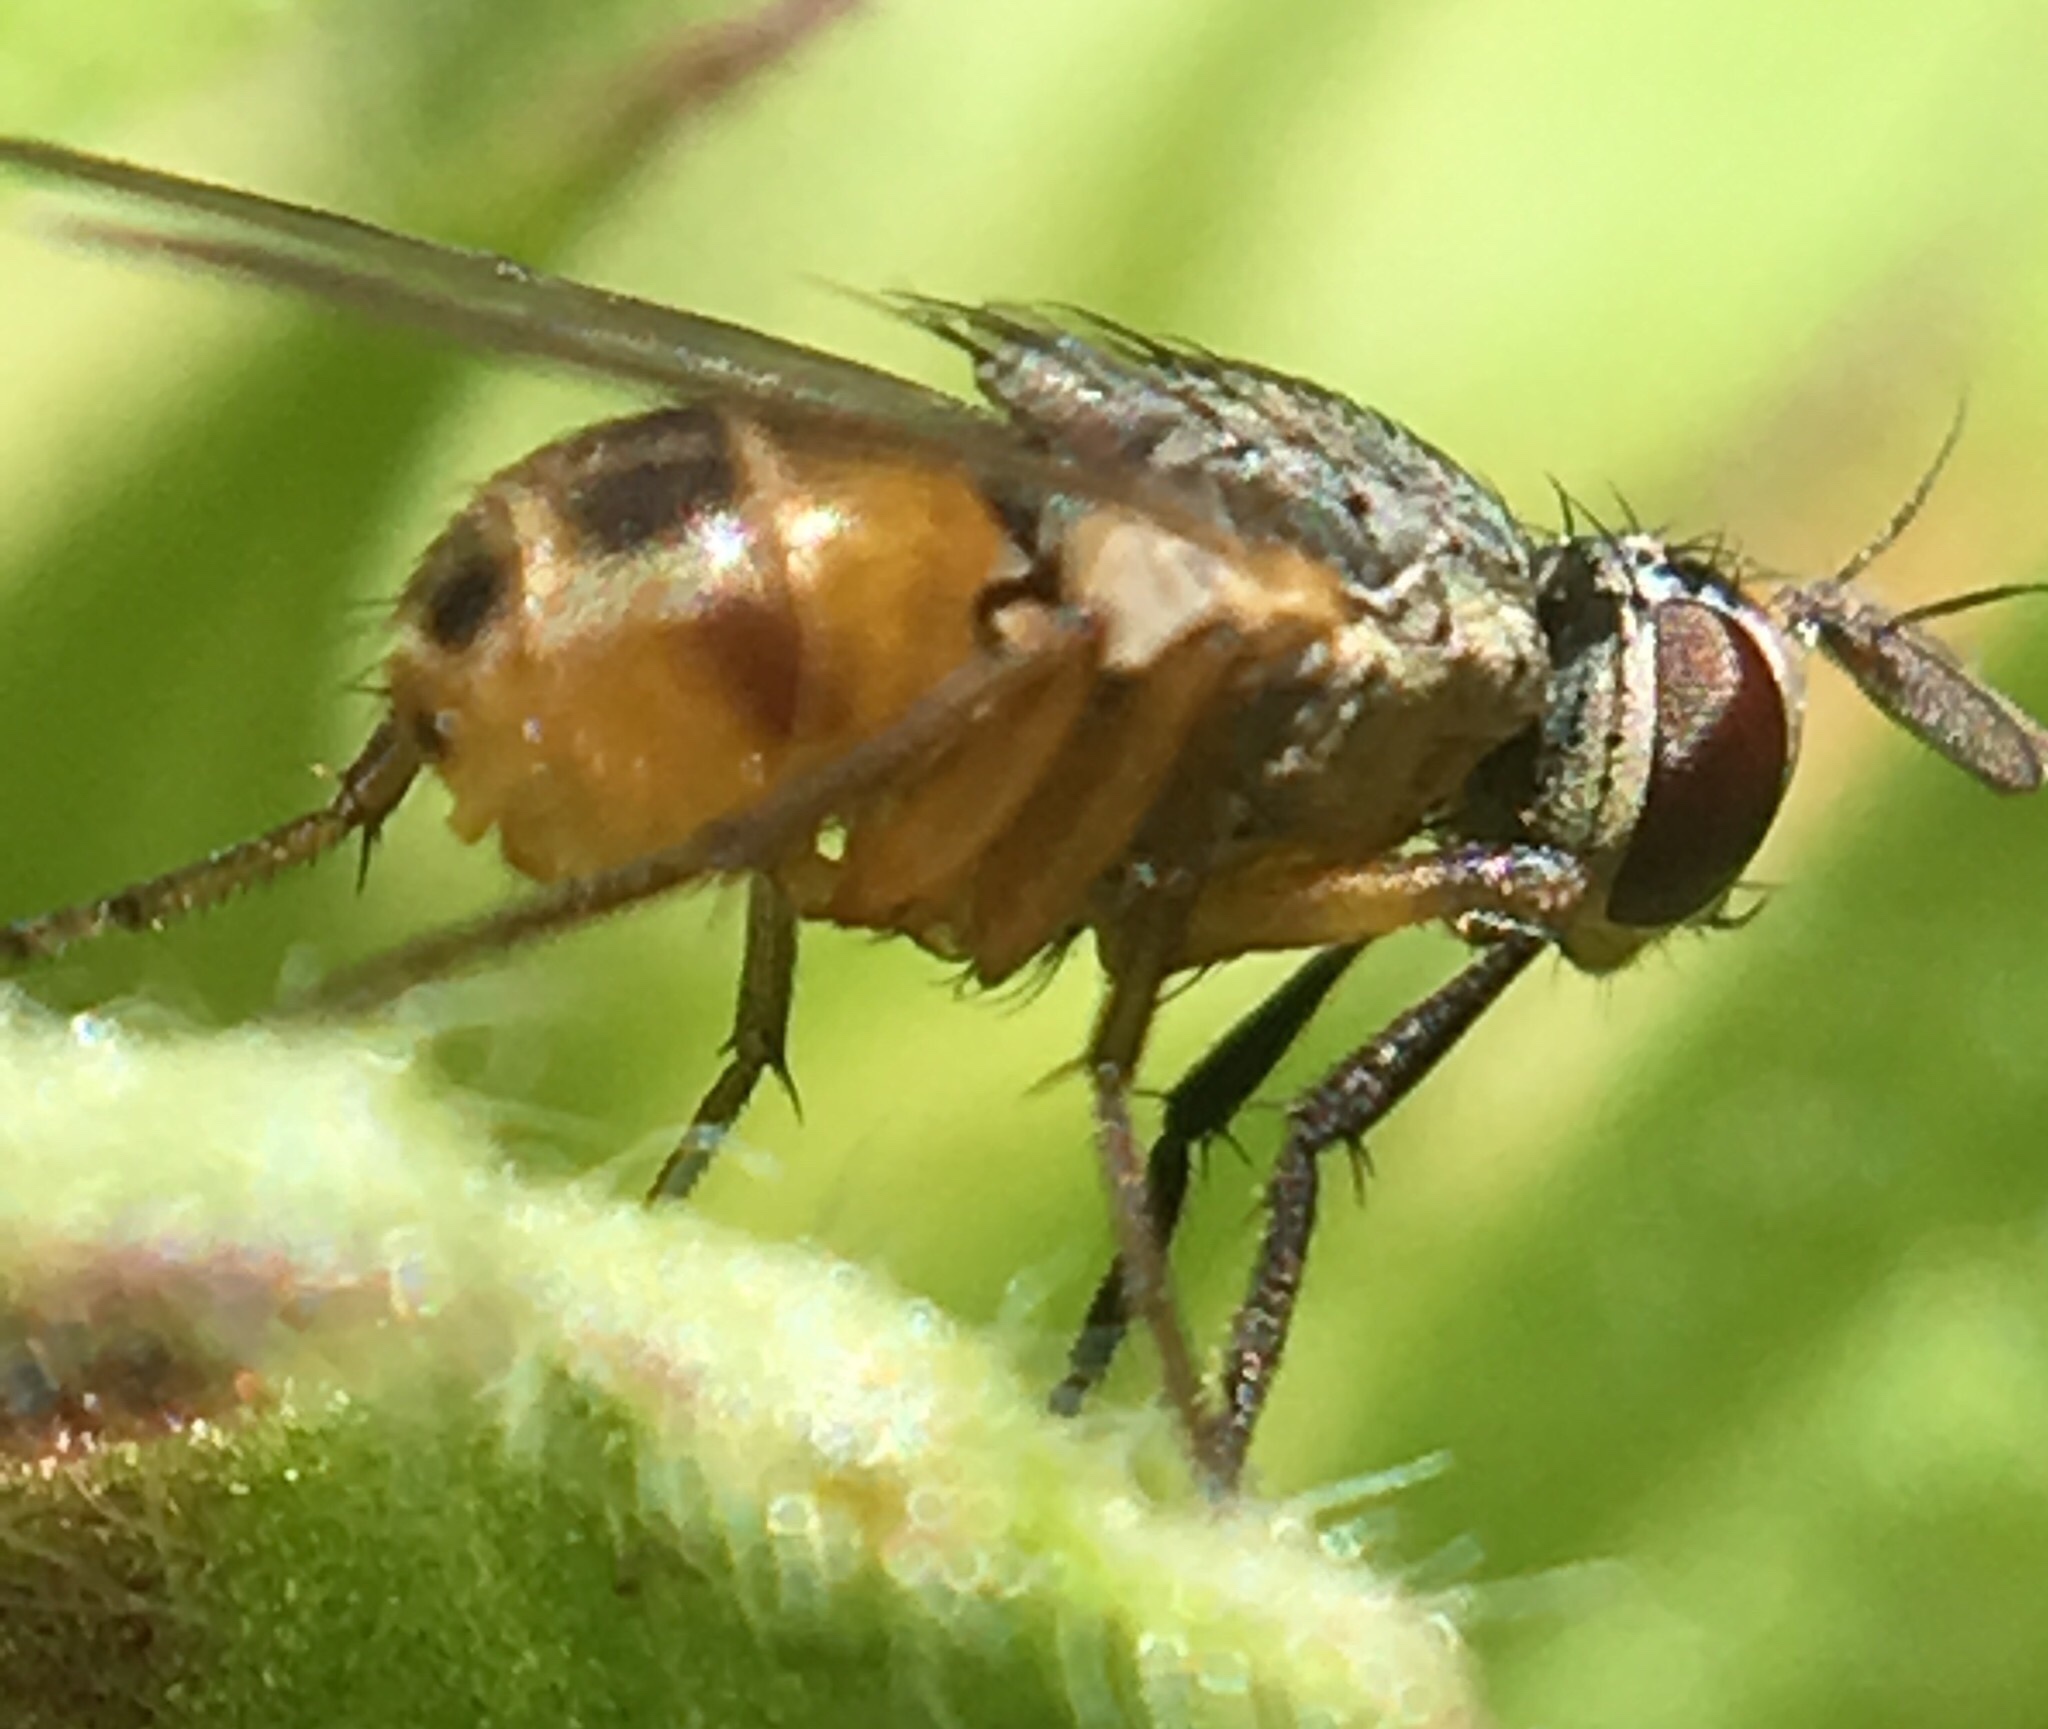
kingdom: Animalia
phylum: Arthropoda
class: Insecta
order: Diptera
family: Muscidae
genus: Atherigona
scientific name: Atherigona reversura
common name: Bermudagrass stem maggot
